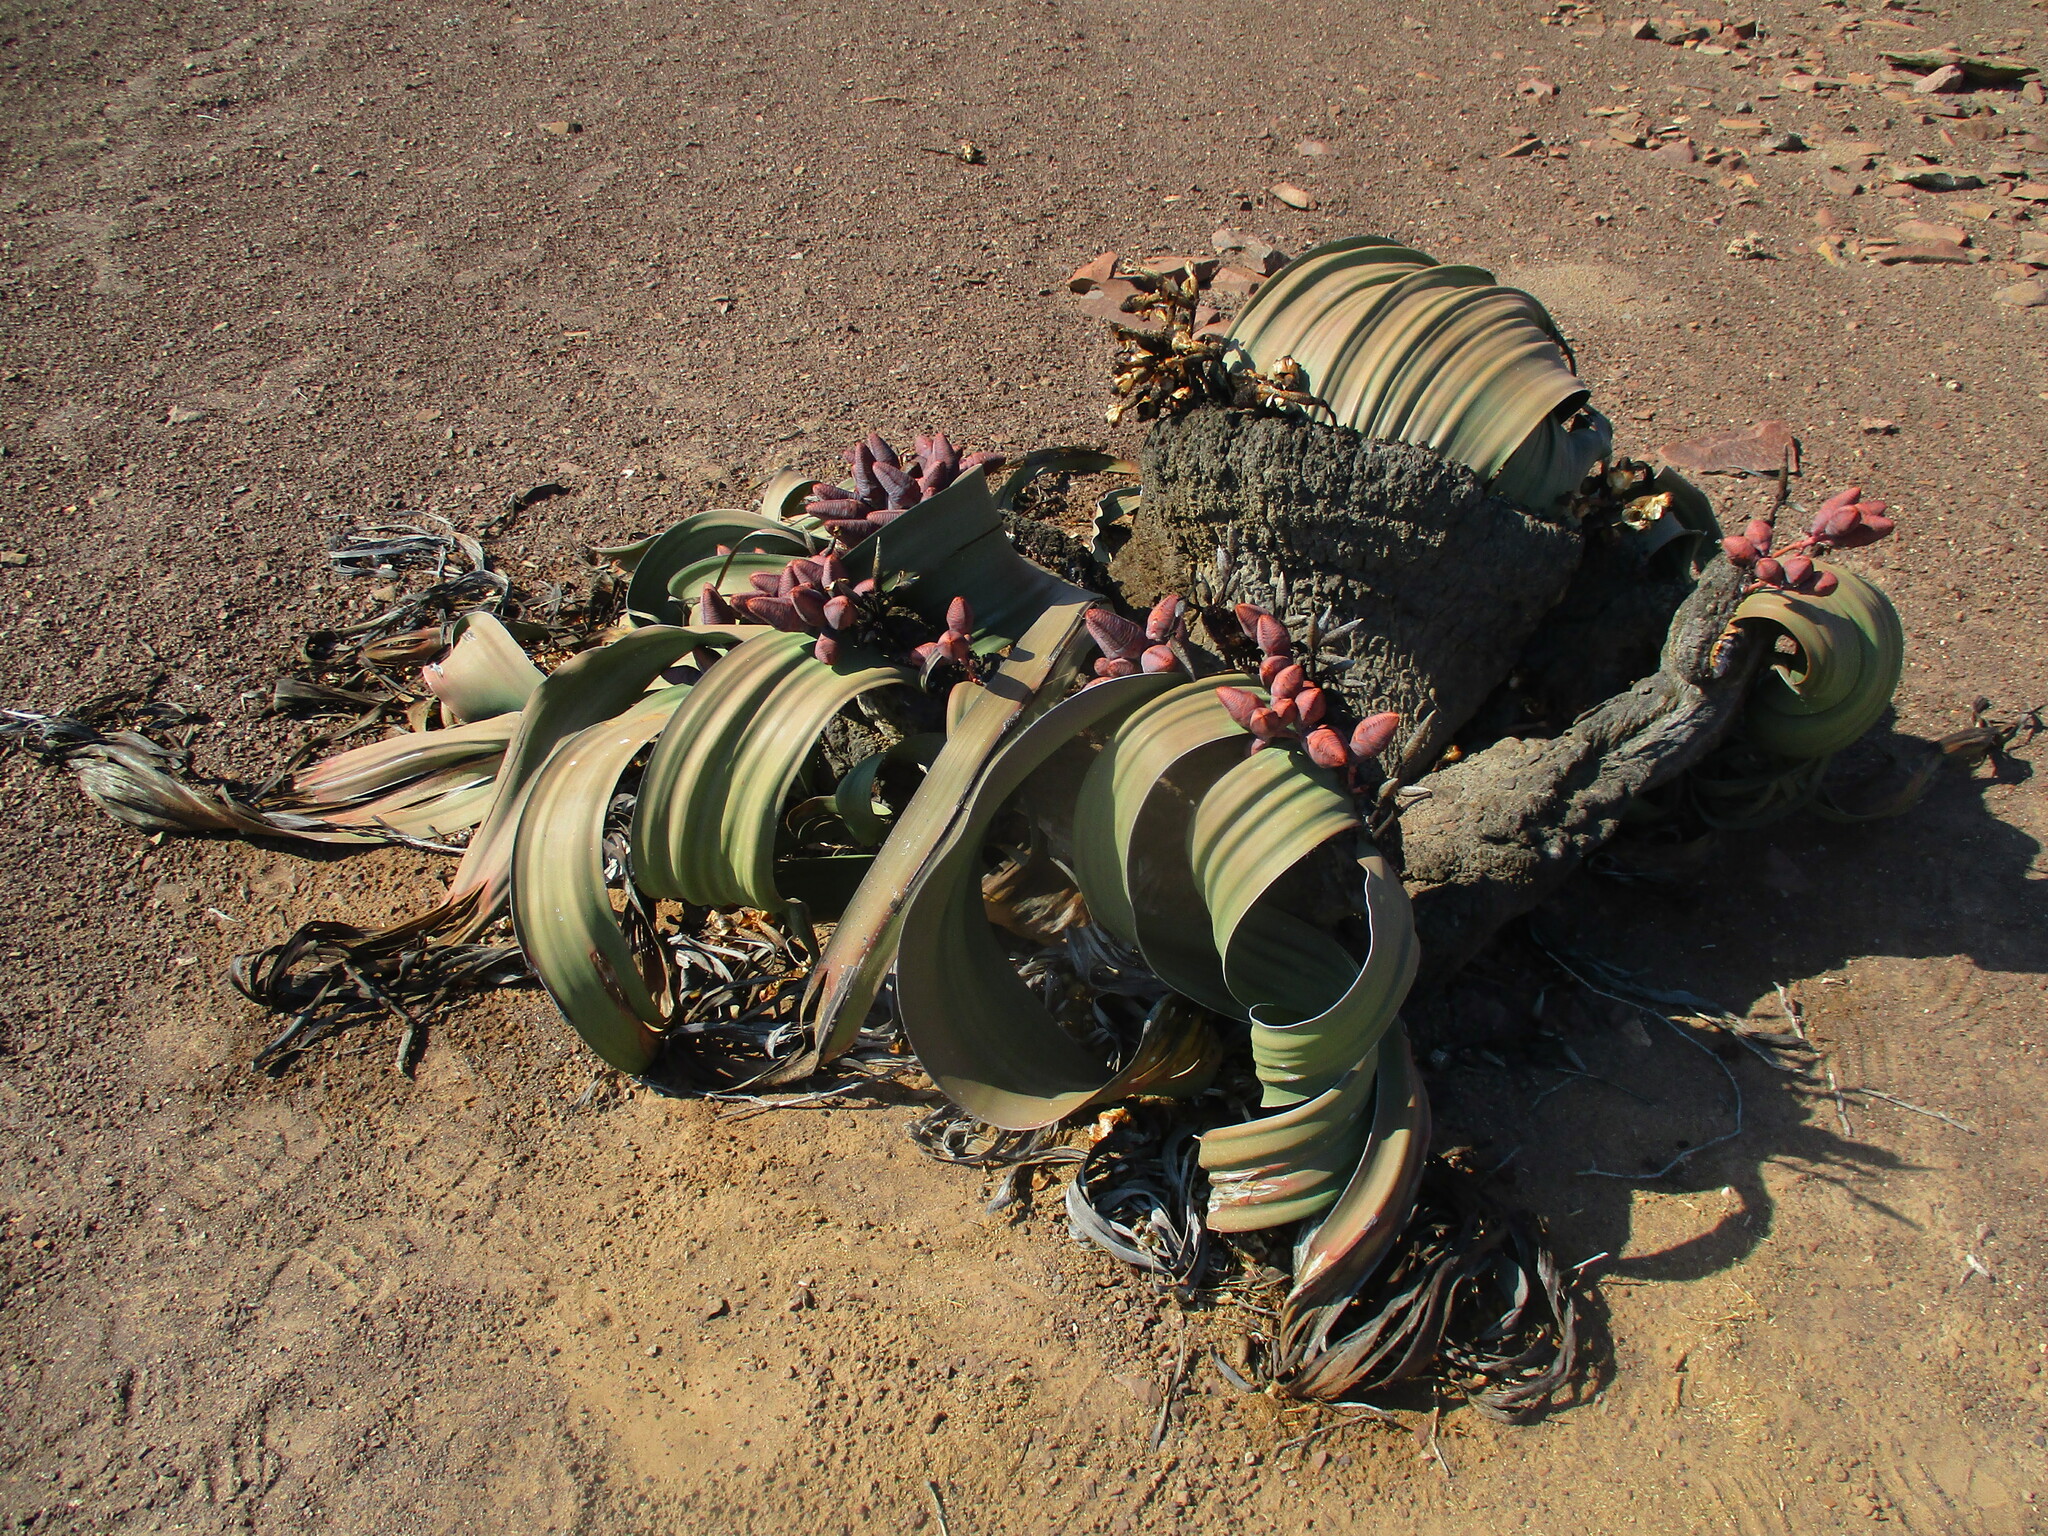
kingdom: Plantae
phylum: Tracheophyta
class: Gnetopsida
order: Welwitschiales
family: Welwitschiaceae
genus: Welwitschia
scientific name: Welwitschia mirabilis
